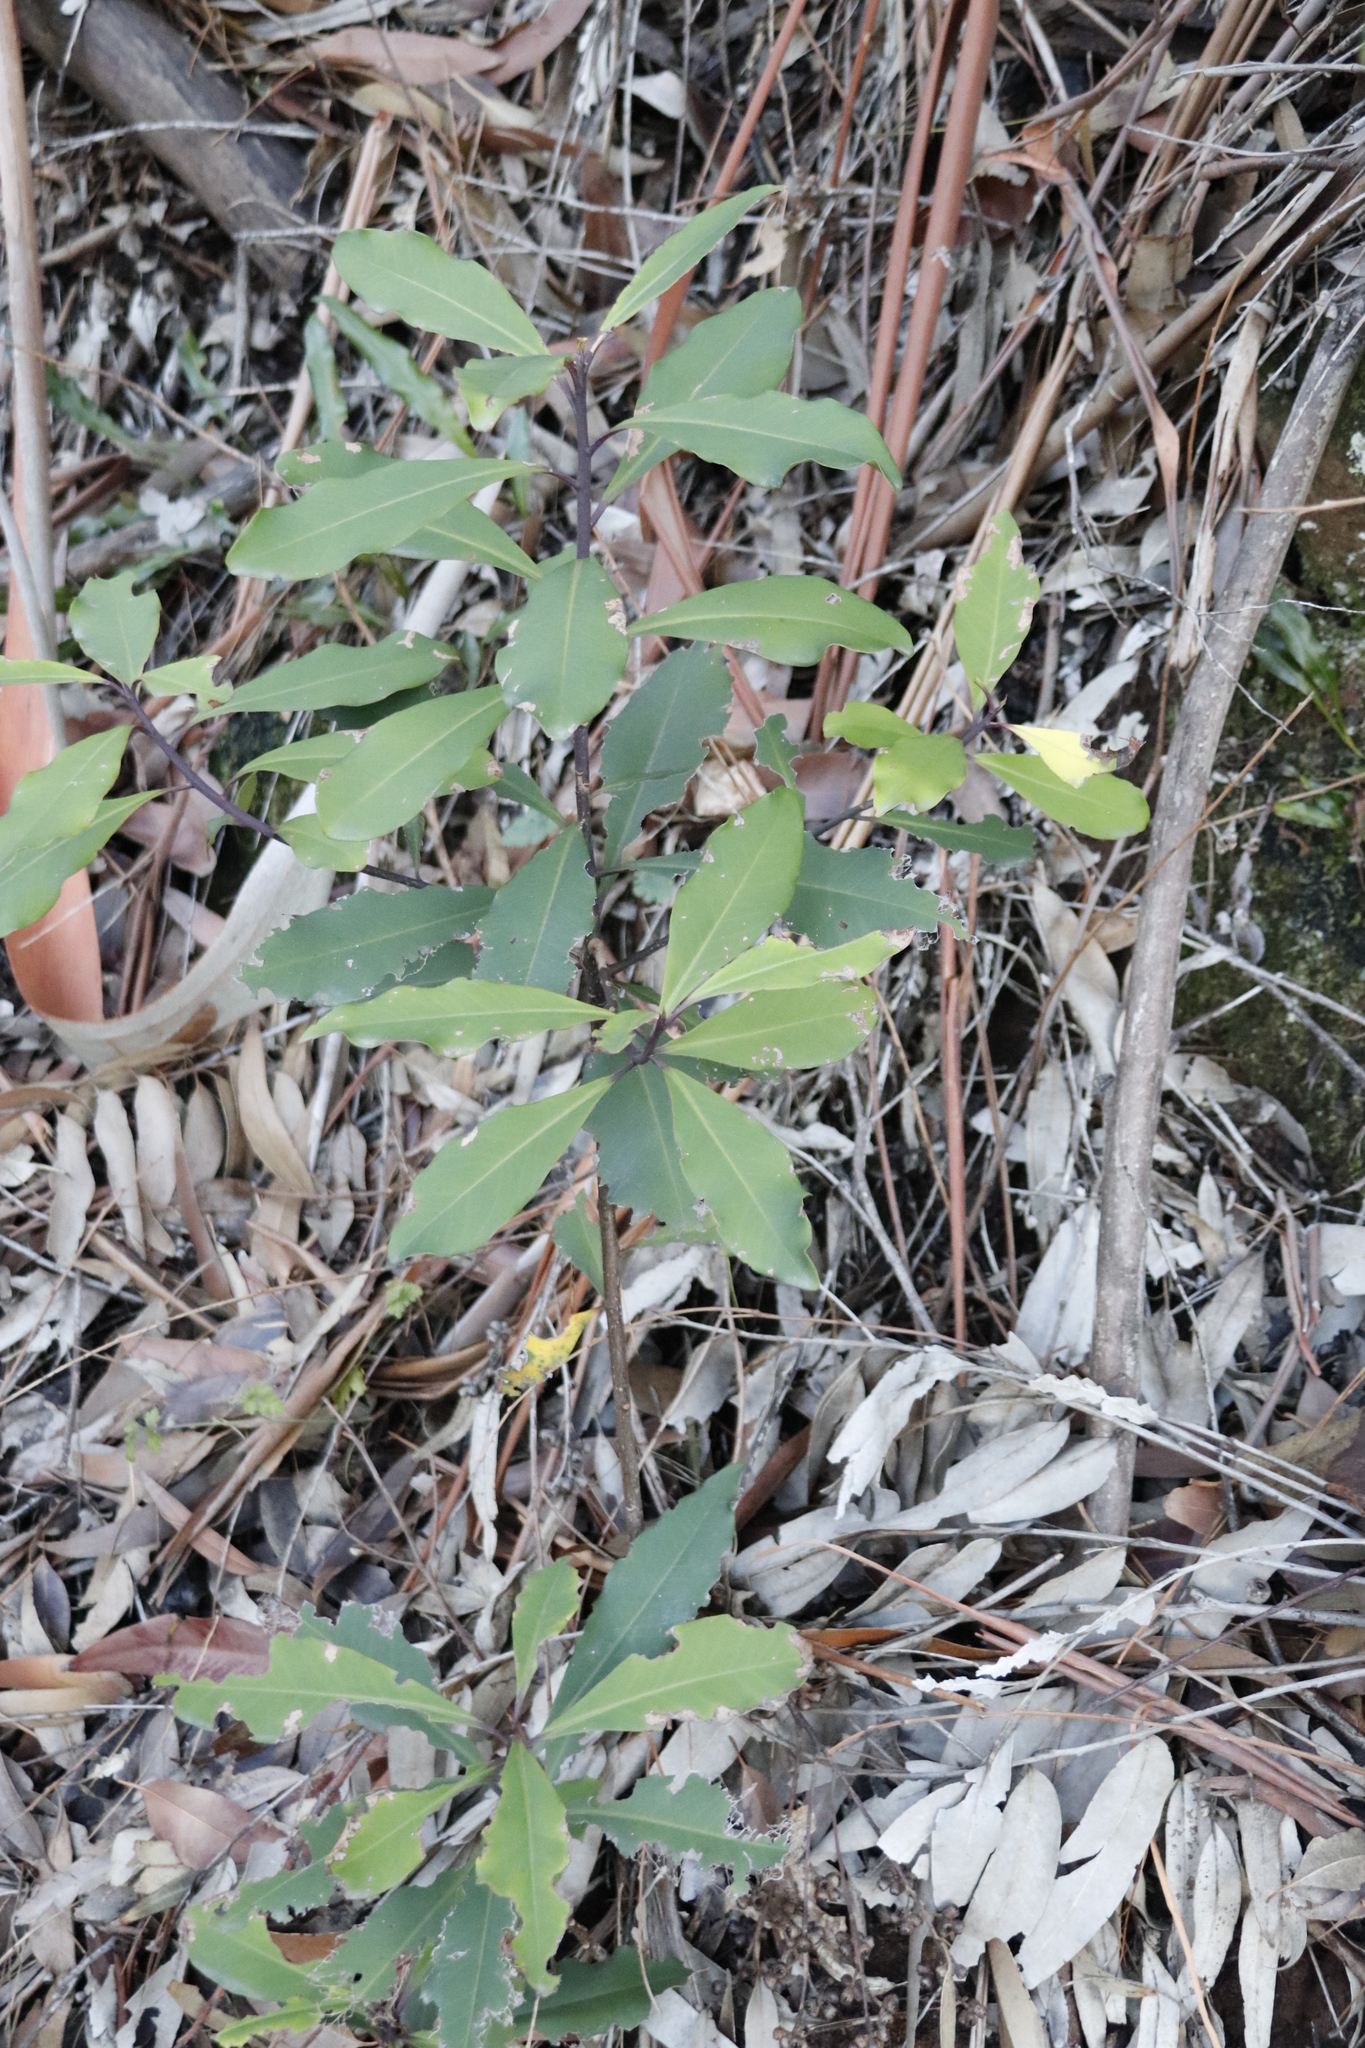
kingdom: Plantae
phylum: Tracheophyta
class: Magnoliopsida
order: Ericales
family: Primulaceae
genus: Myrsine
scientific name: Myrsine melanophloeos
